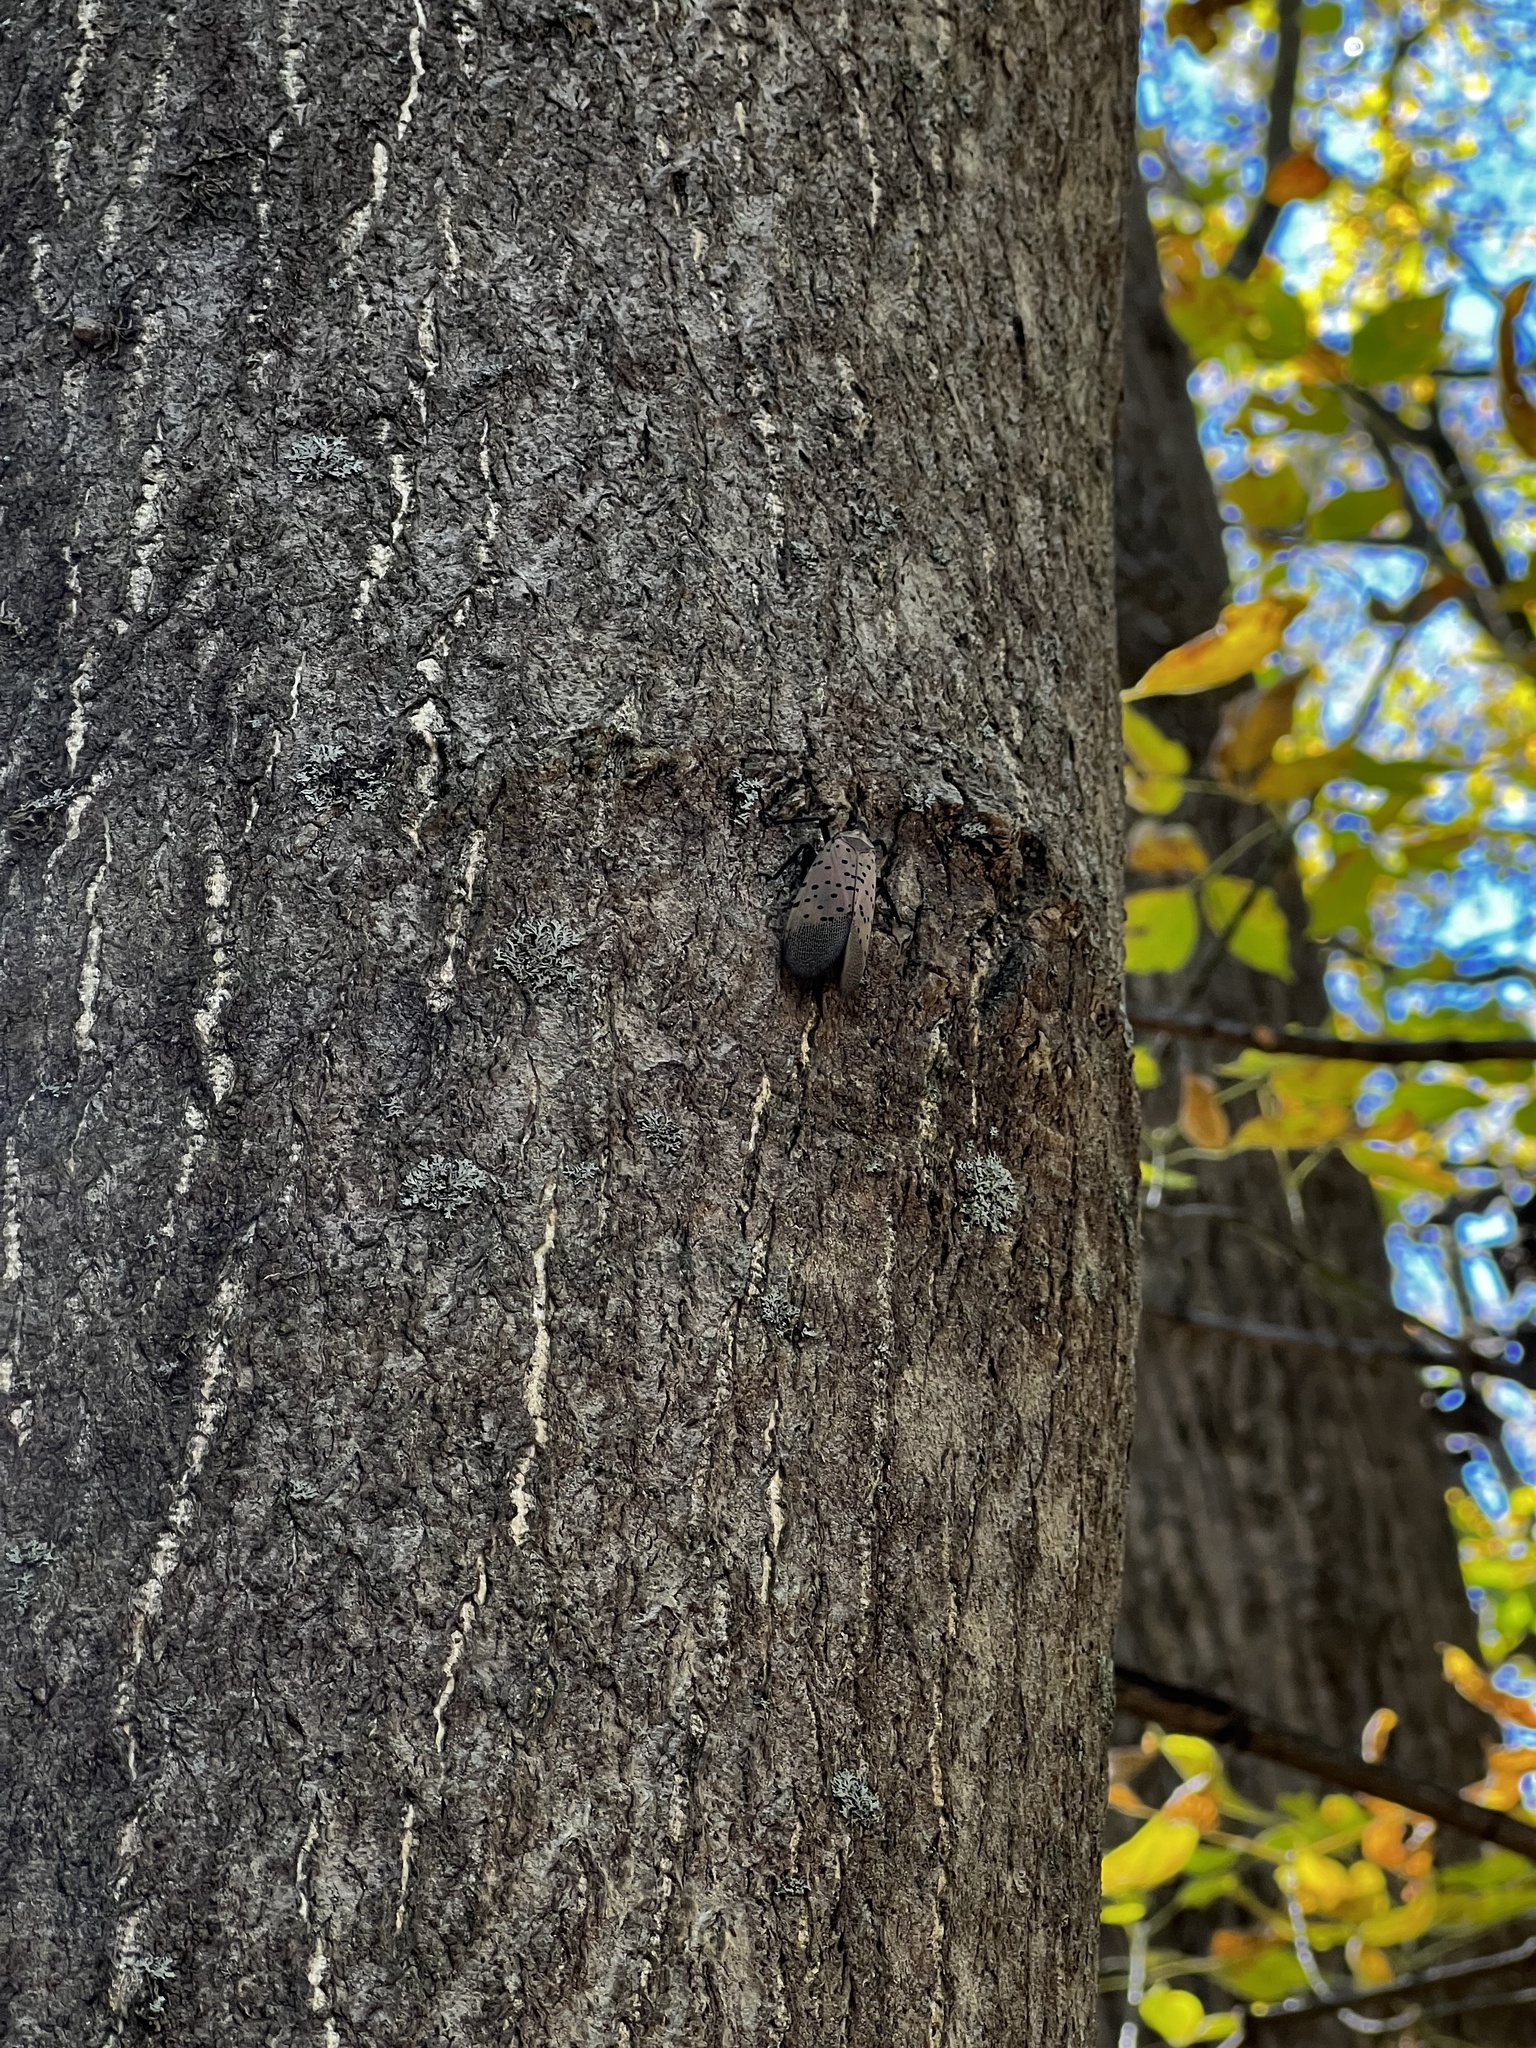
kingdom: Animalia
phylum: Arthropoda
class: Insecta
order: Hemiptera
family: Fulgoridae
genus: Lycorma
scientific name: Lycorma delicatula
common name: Spotted lanternfly
